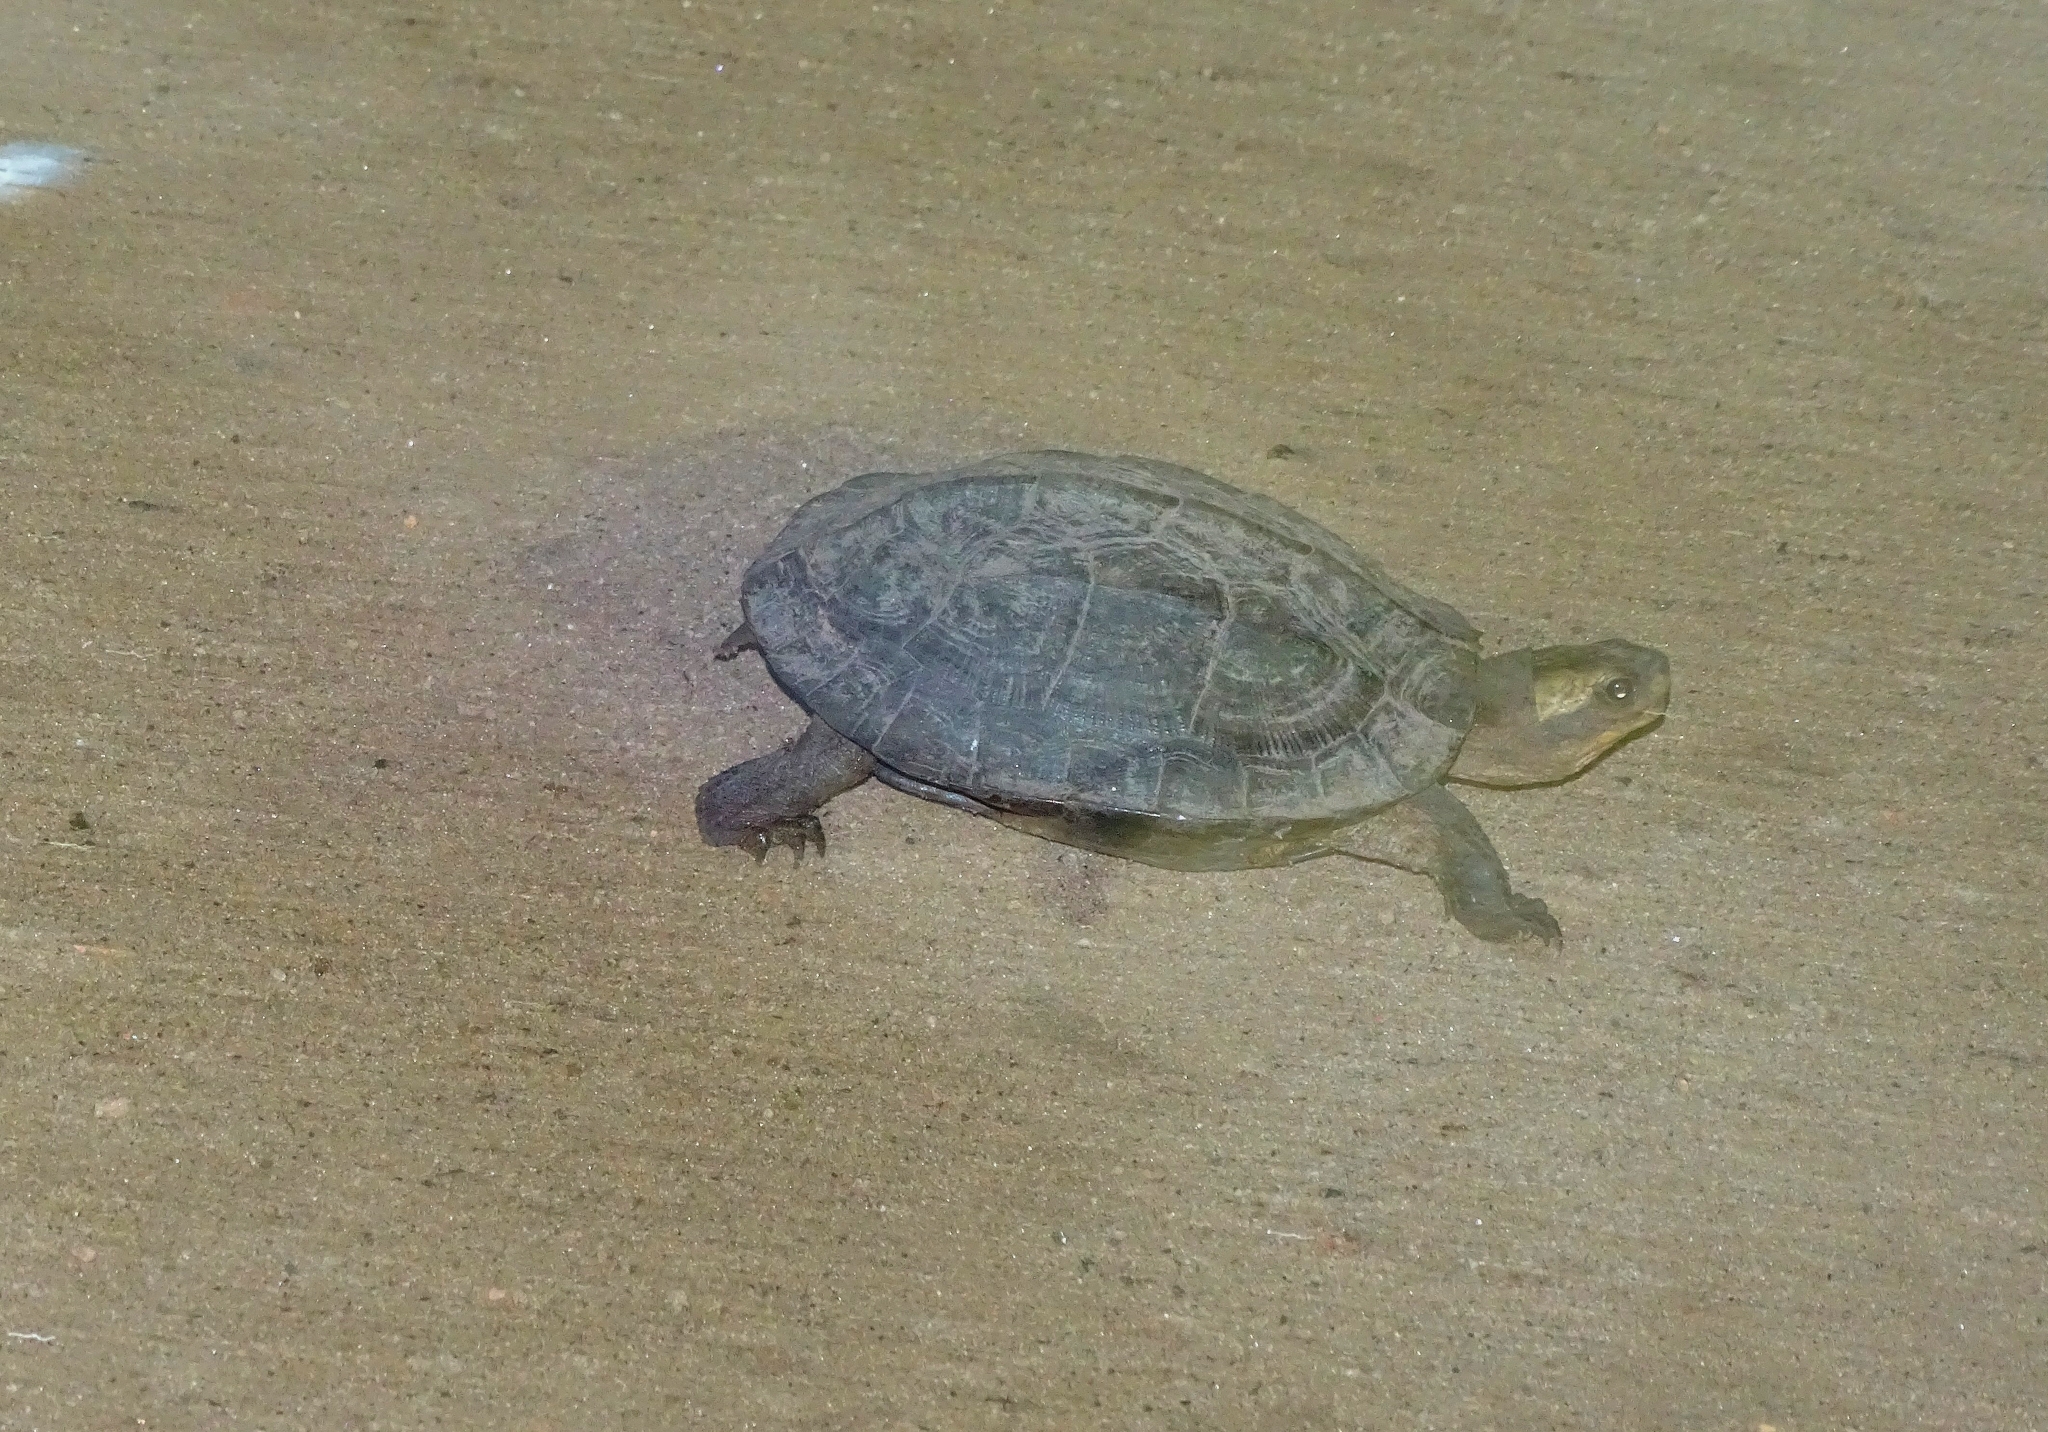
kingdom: Animalia
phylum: Chordata
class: Testudines
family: Geoemydidae
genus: Melanochelys
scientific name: Melanochelys trijuga
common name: Indian black turtle
